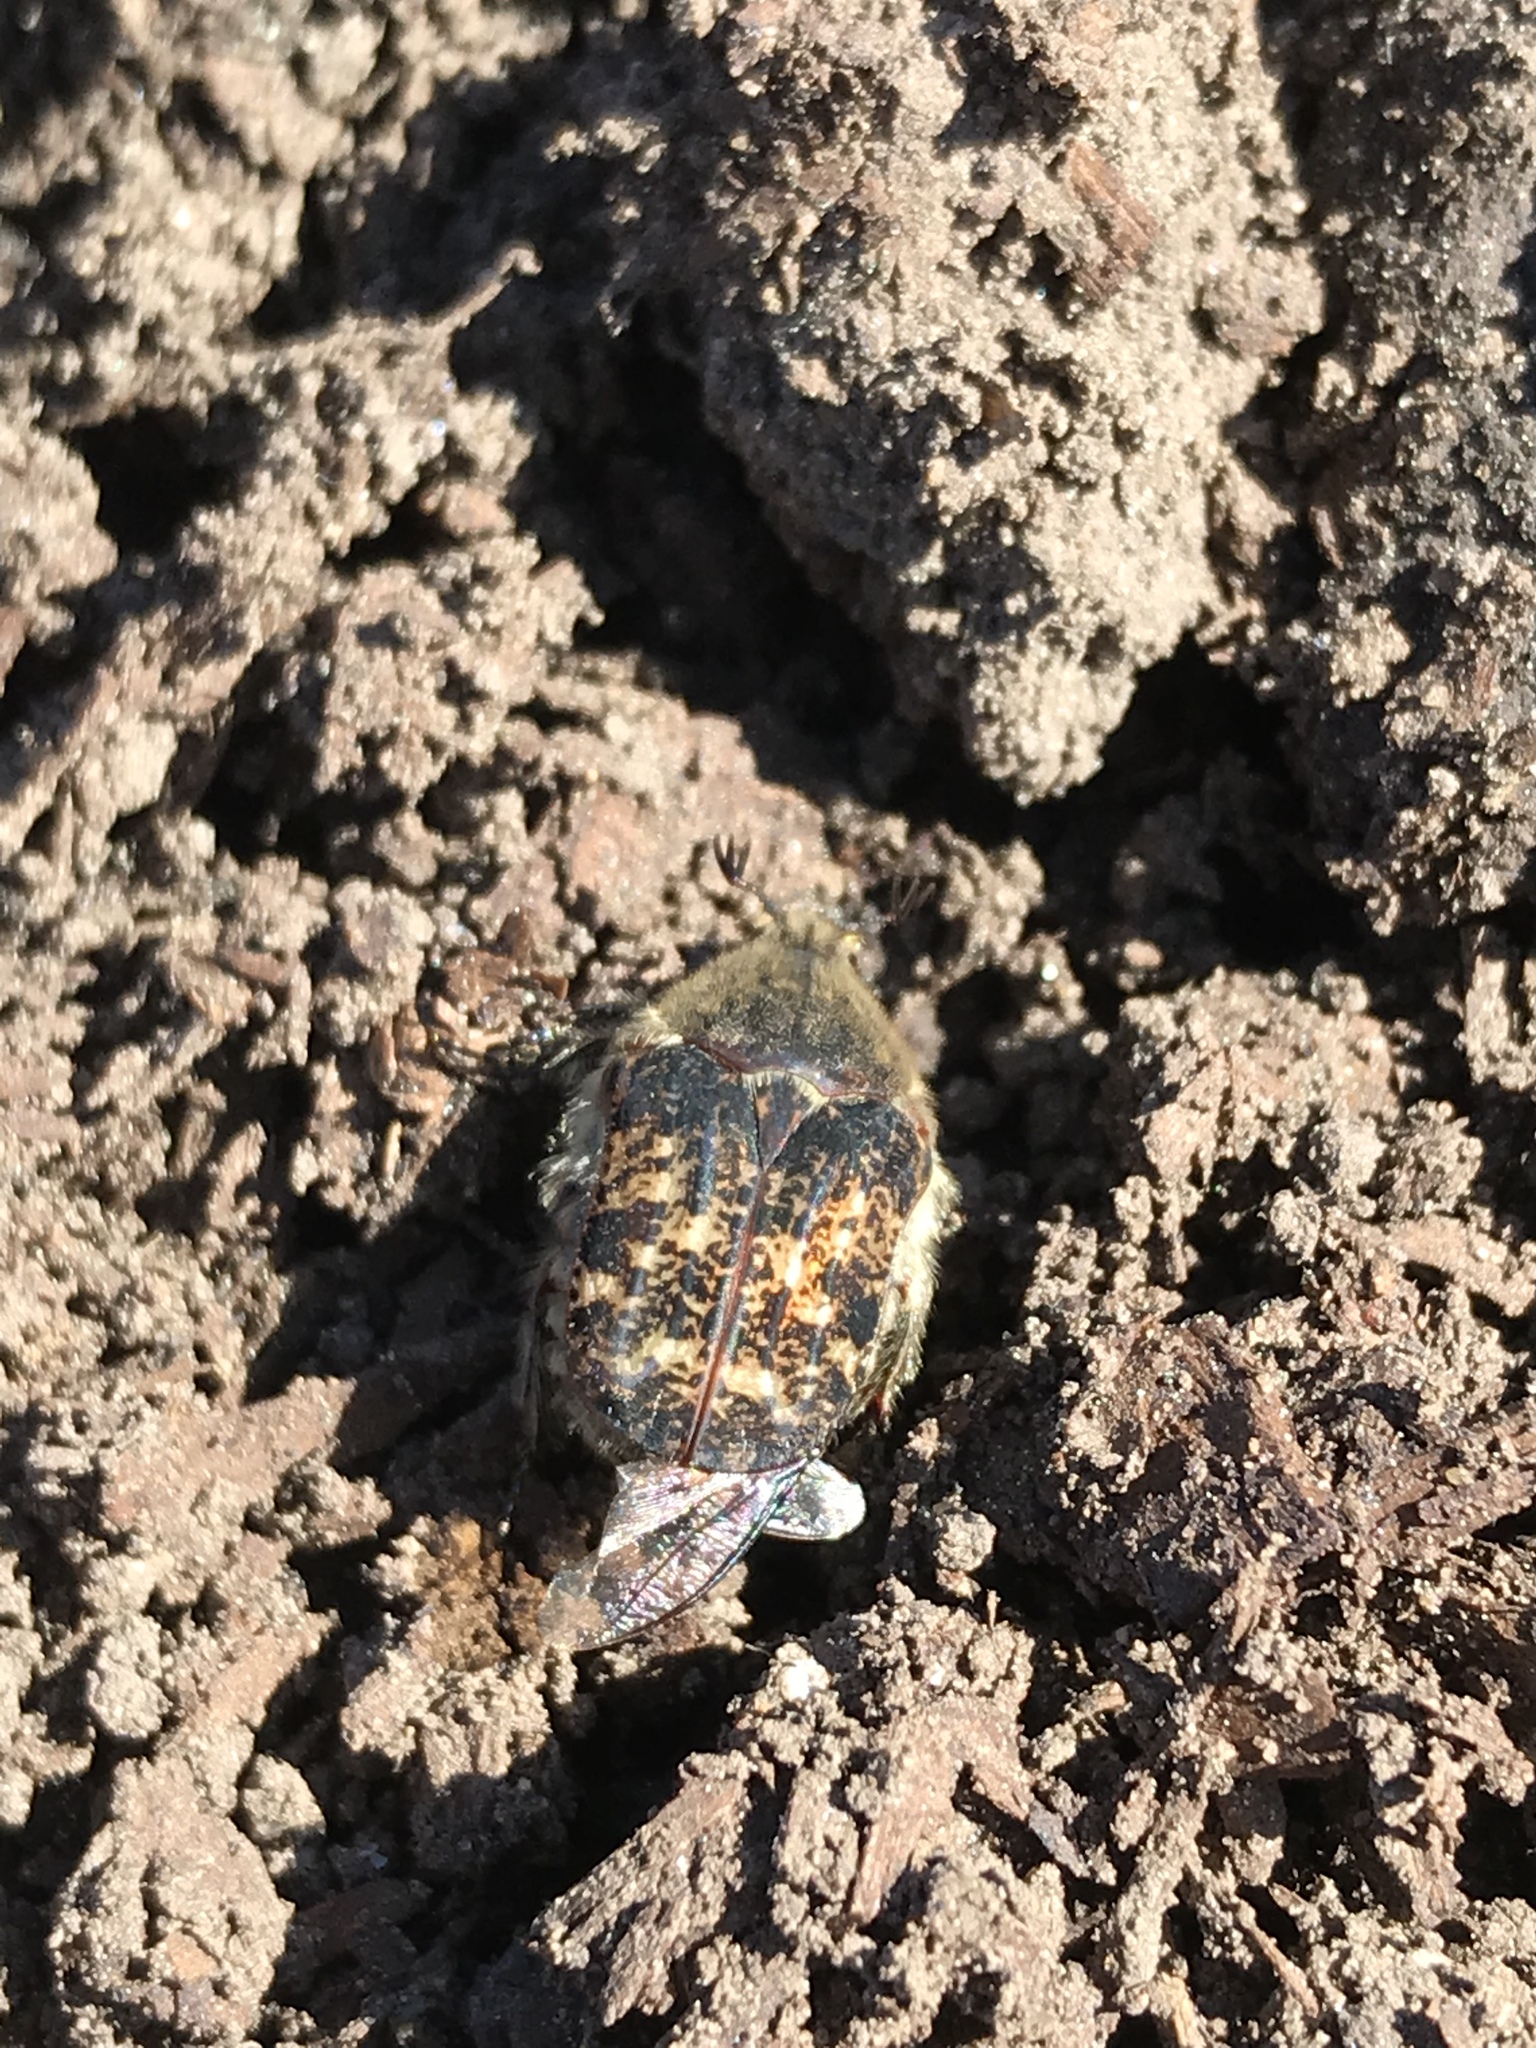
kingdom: Animalia
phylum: Arthropoda
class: Insecta
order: Coleoptera
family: Scarabaeidae
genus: Euphoria
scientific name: Euphoria inda
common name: Bumble flower beetle
